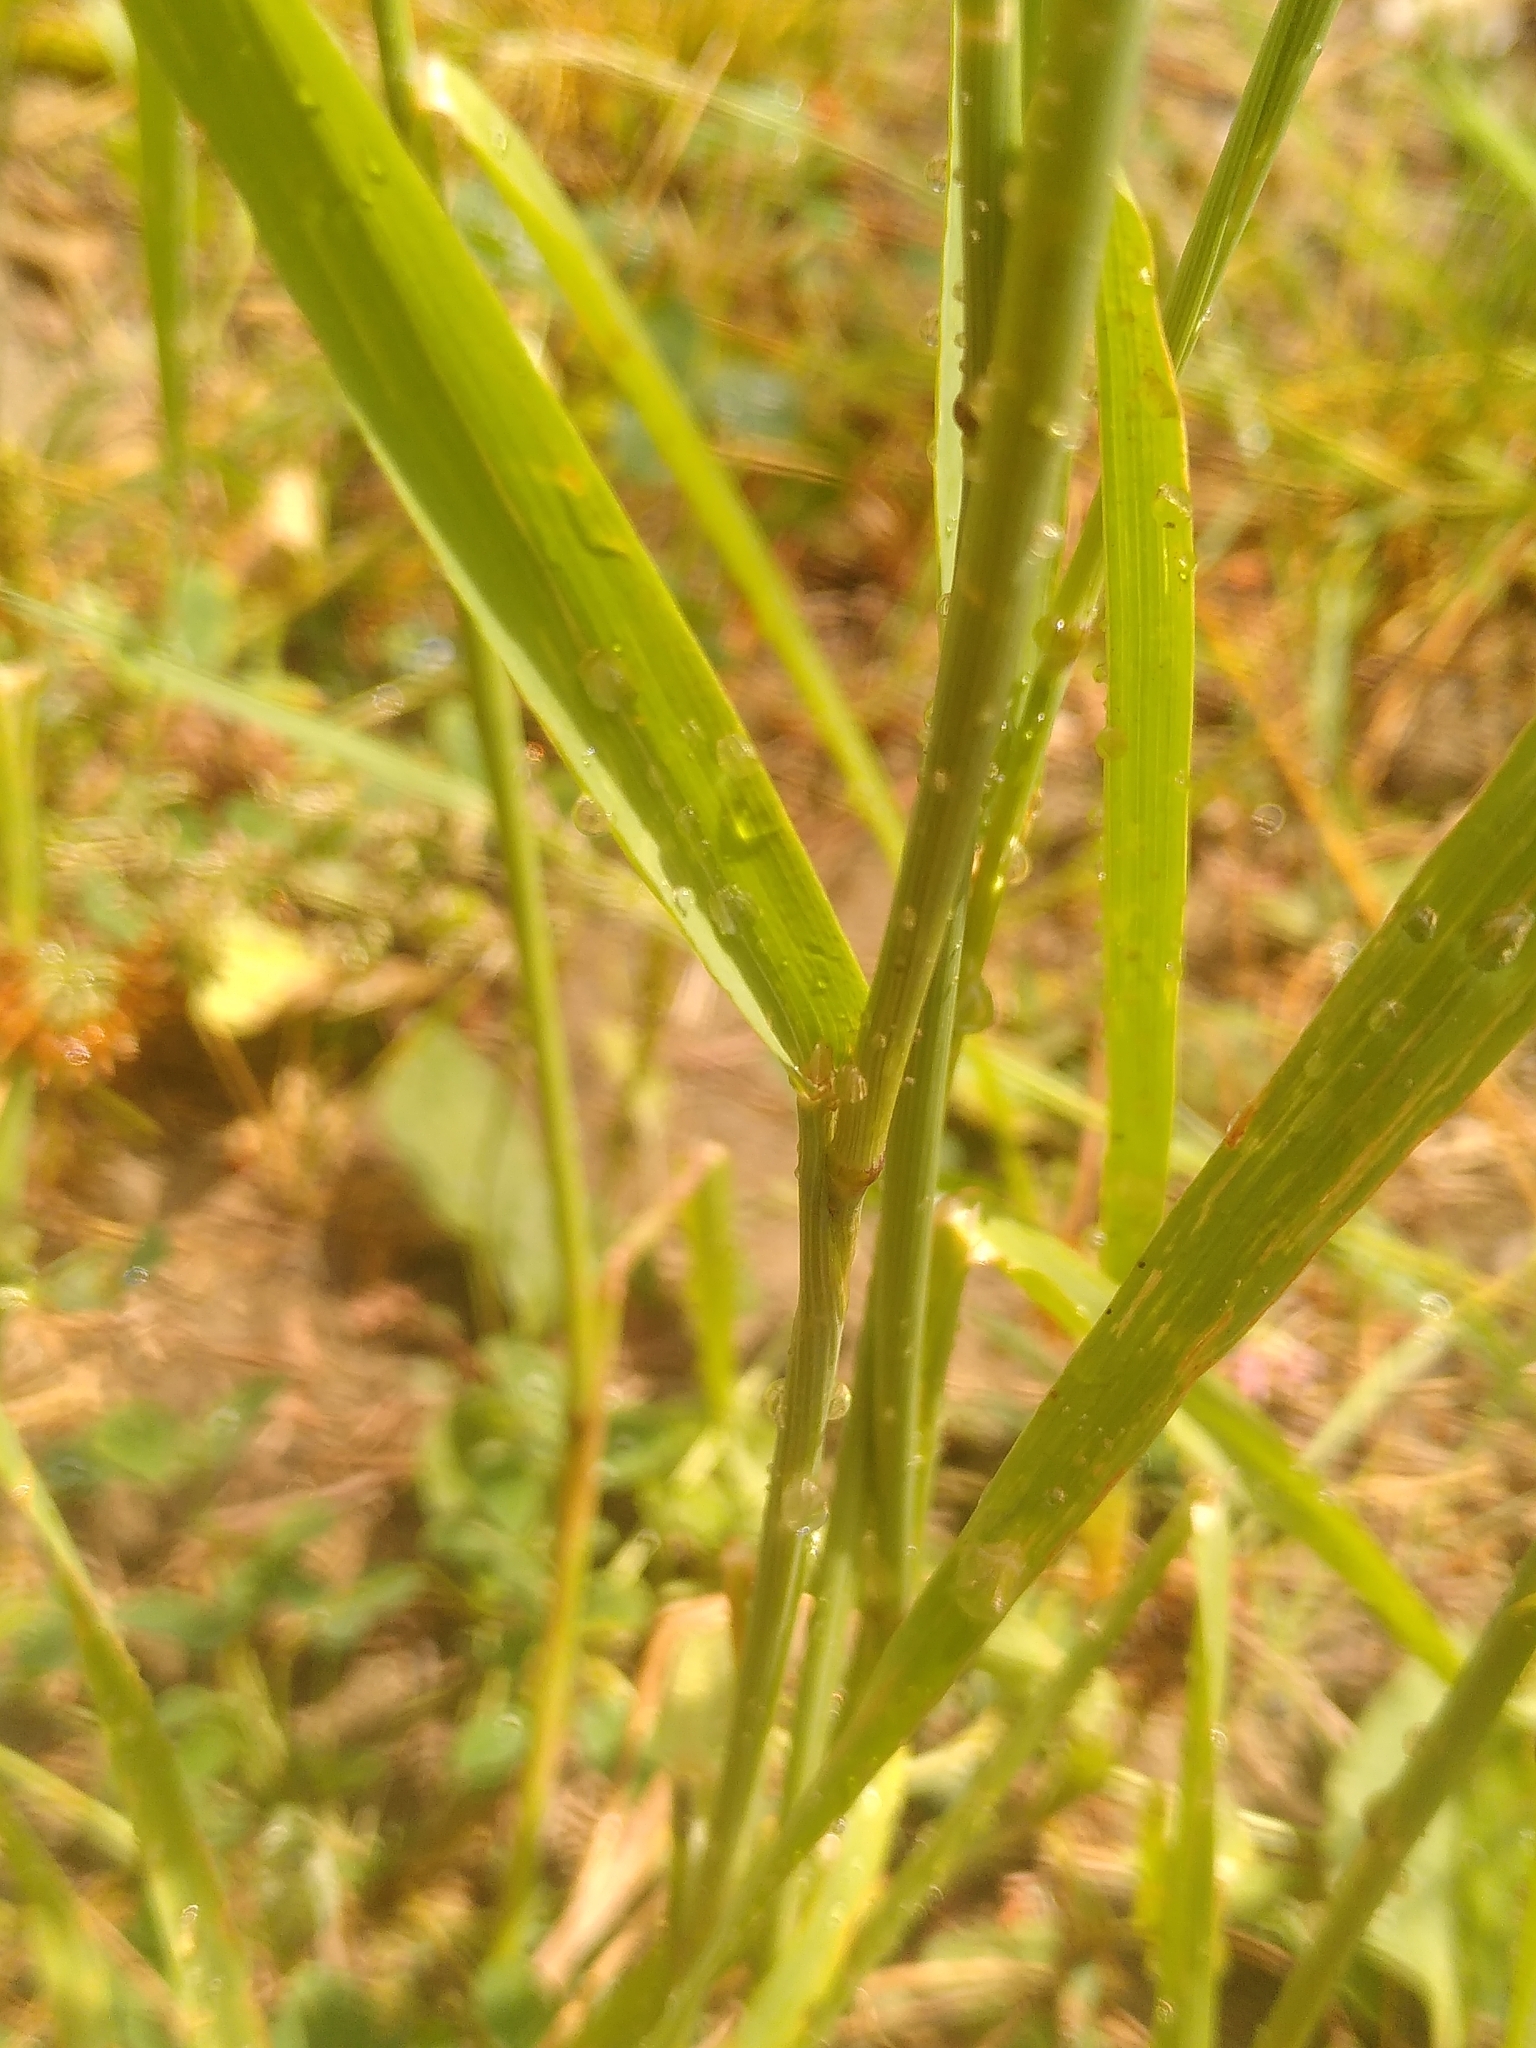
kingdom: Plantae
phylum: Tracheophyta
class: Liliopsida
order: Poales
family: Poaceae
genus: Phleum
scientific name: Phleum pratense
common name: Timothy grass
